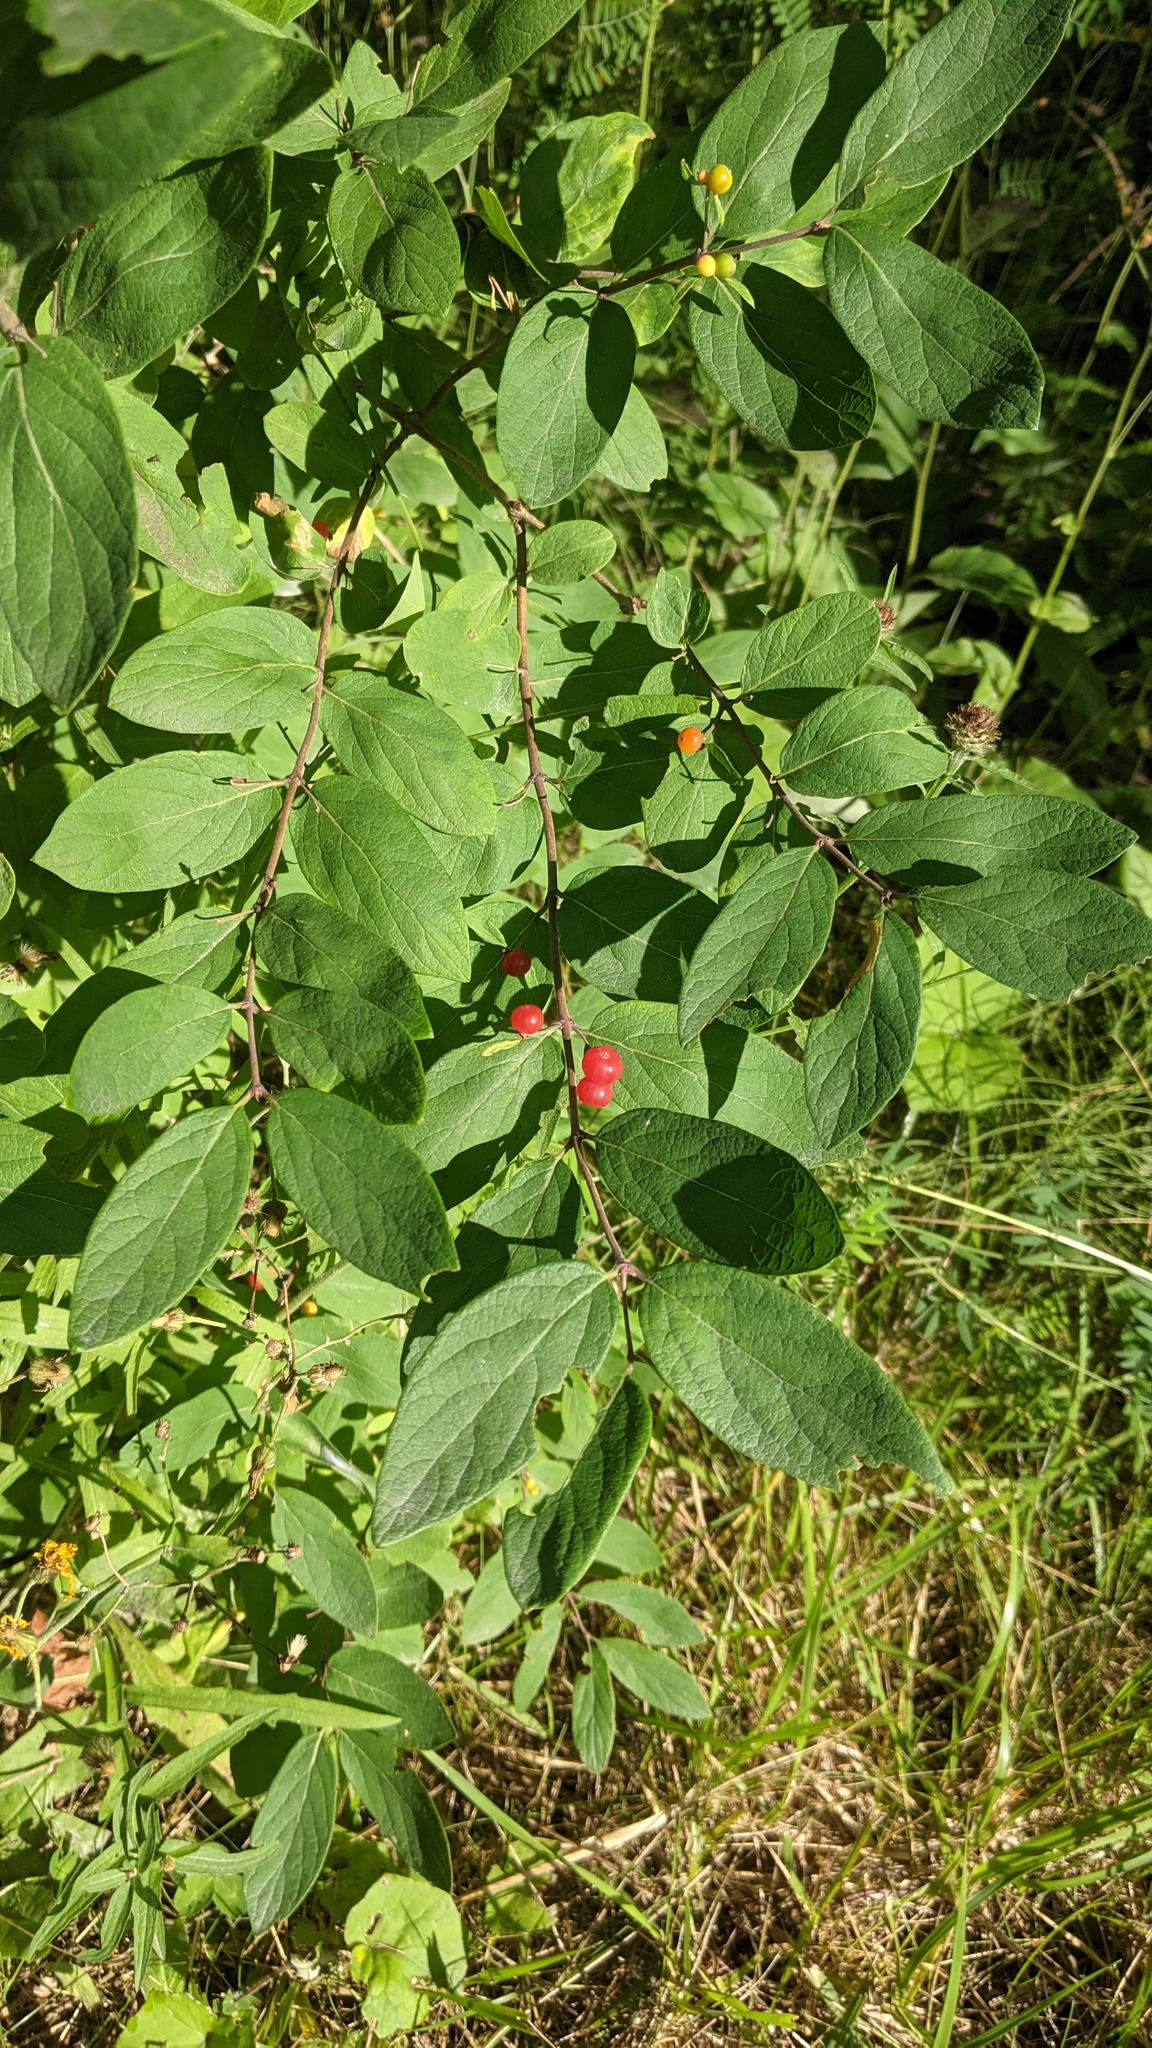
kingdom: Plantae
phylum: Tracheophyta
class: Magnoliopsida
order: Dipsacales
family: Caprifoliaceae
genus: Lonicera
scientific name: Lonicera
